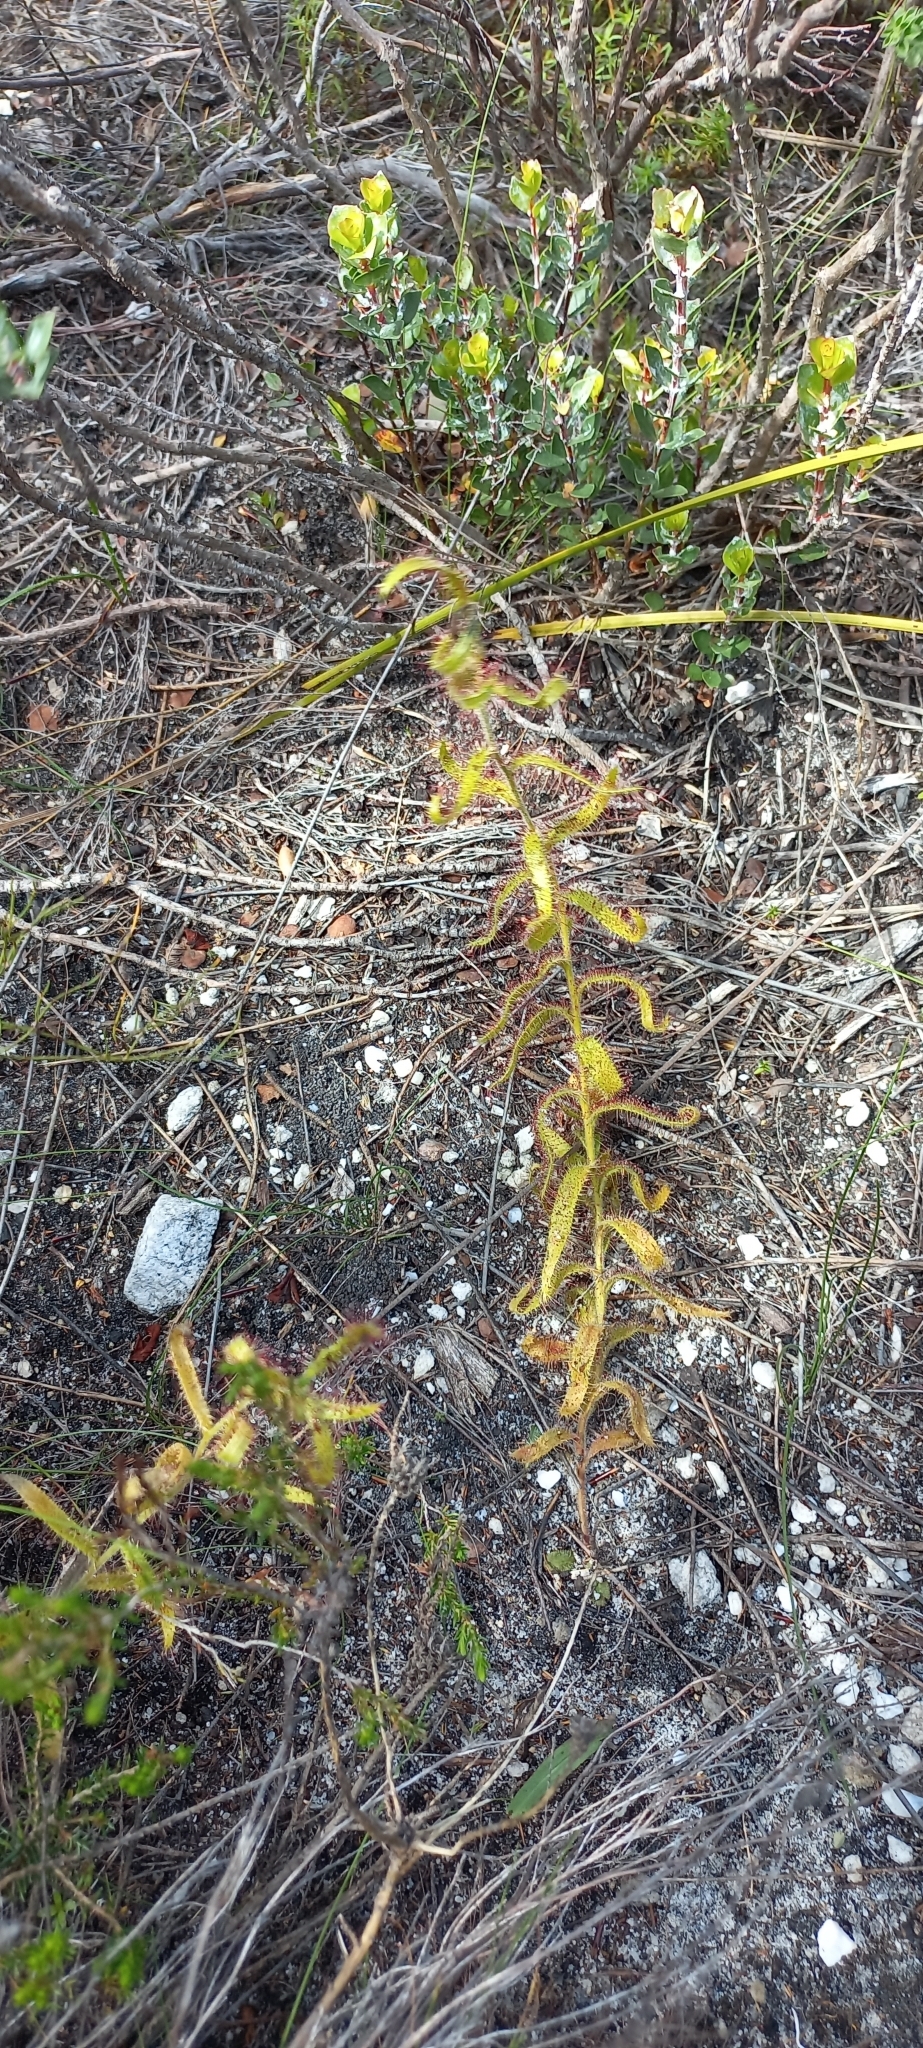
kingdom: Plantae
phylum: Tracheophyta
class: Magnoliopsida
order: Caryophyllales
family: Droseraceae
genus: Drosera
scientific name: Drosera cistiflora
